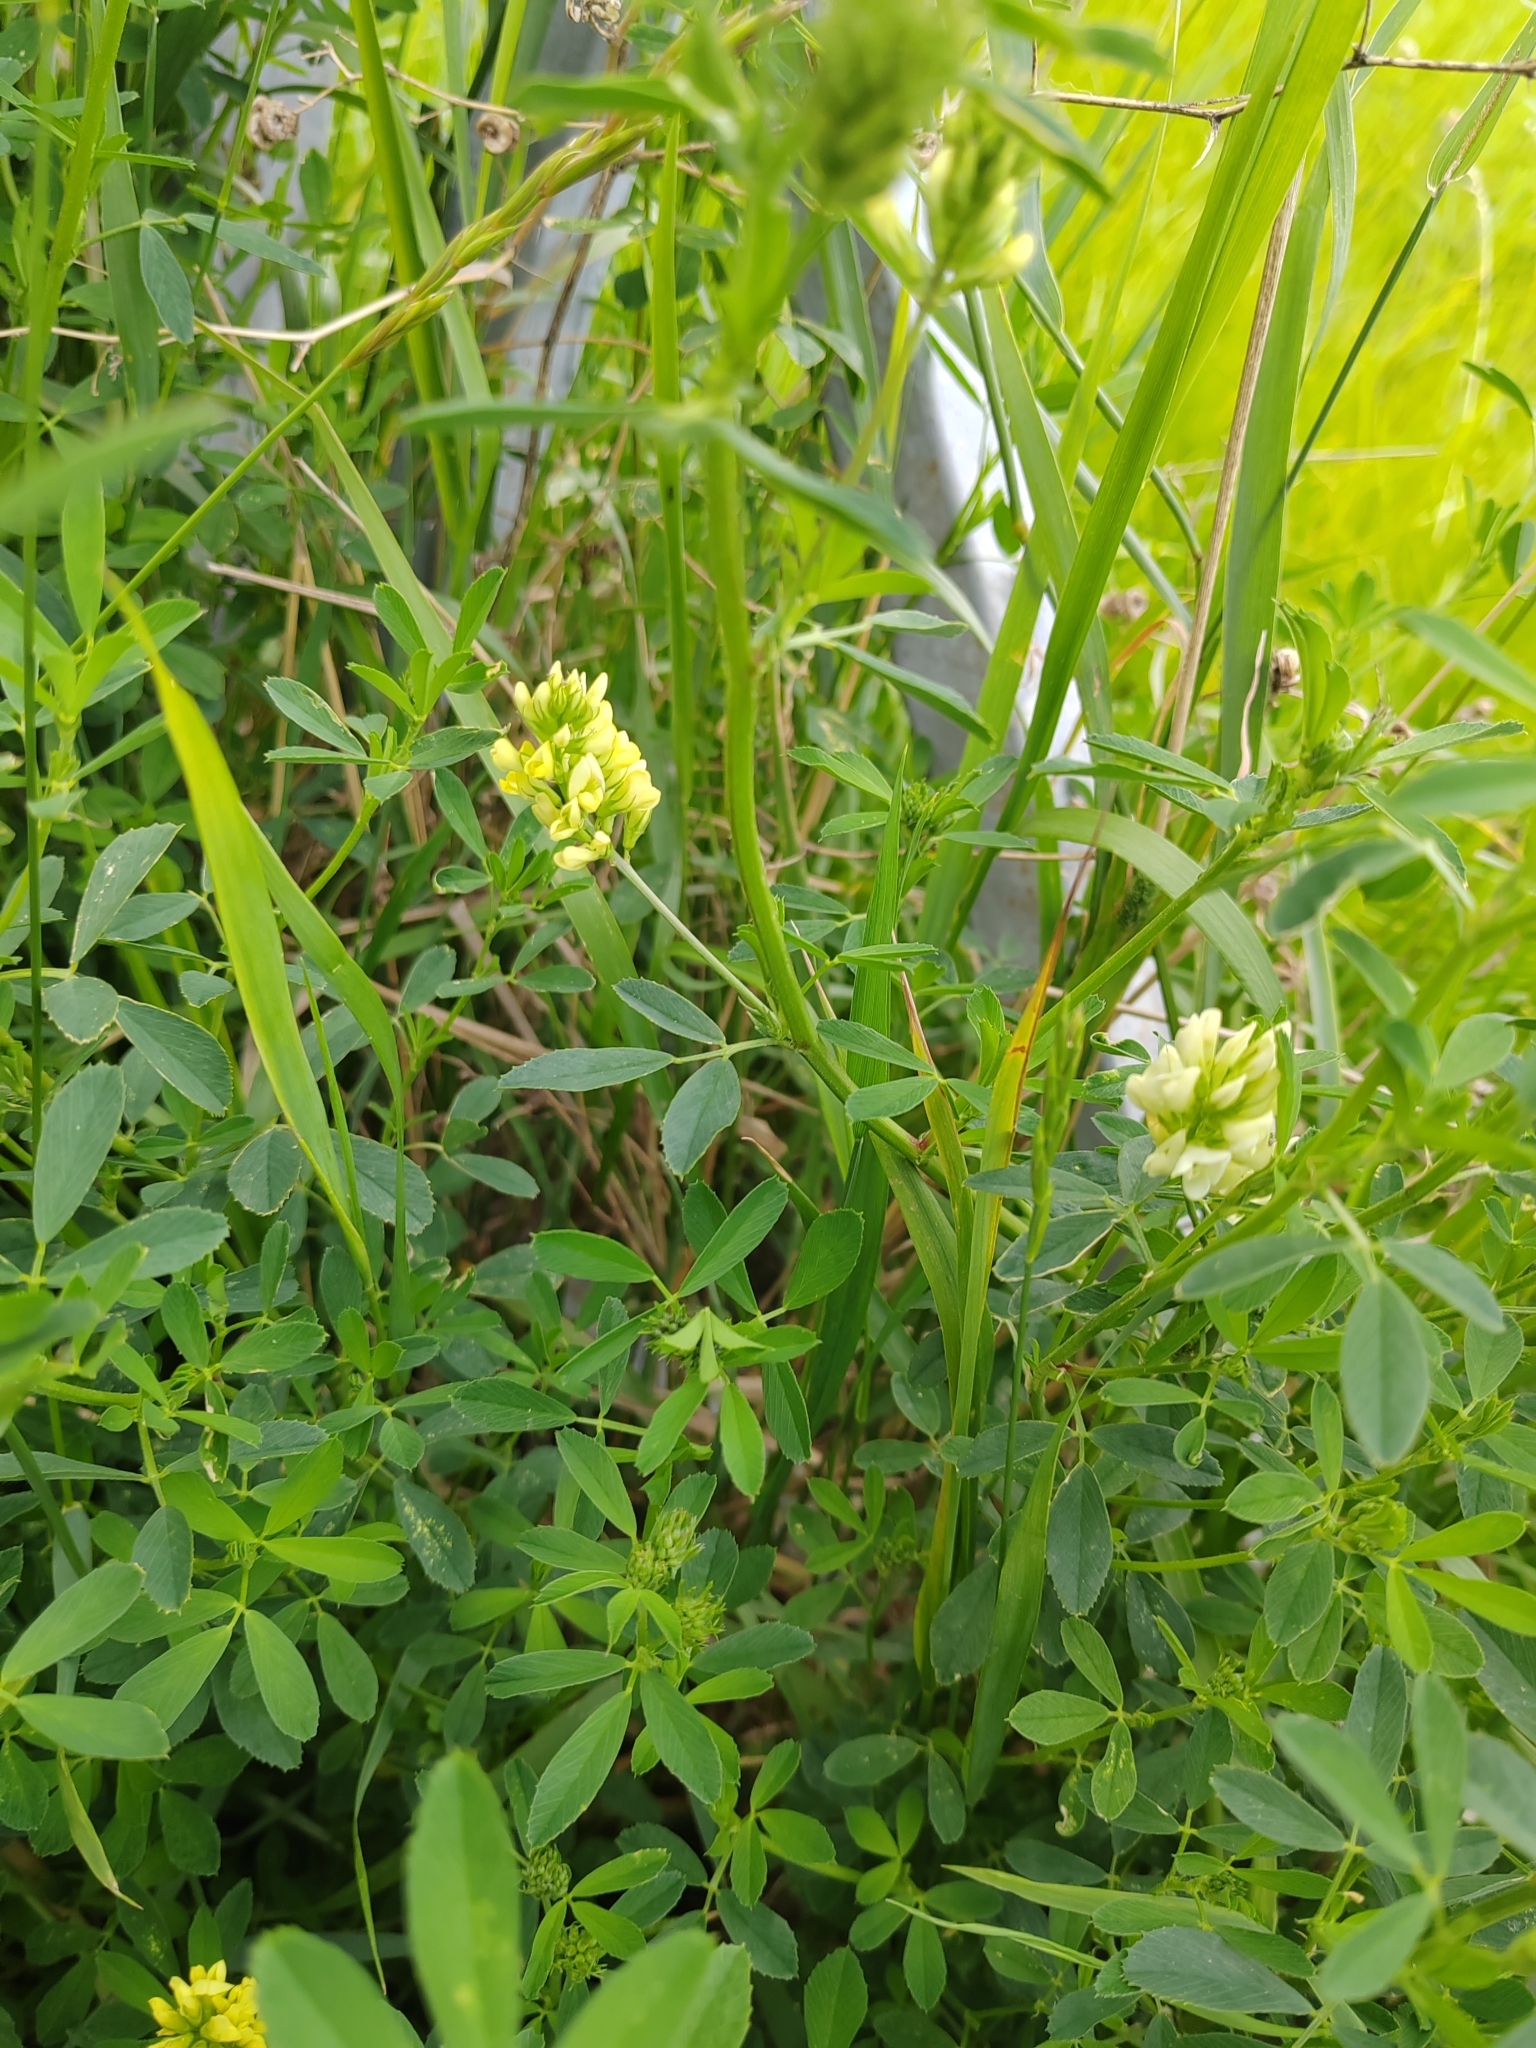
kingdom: Plantae
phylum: Tracheophyta
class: Magnoliopsida
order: Fabales
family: Fabaceae
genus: Medicago
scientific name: Medicago varia
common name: Sand lucerne
